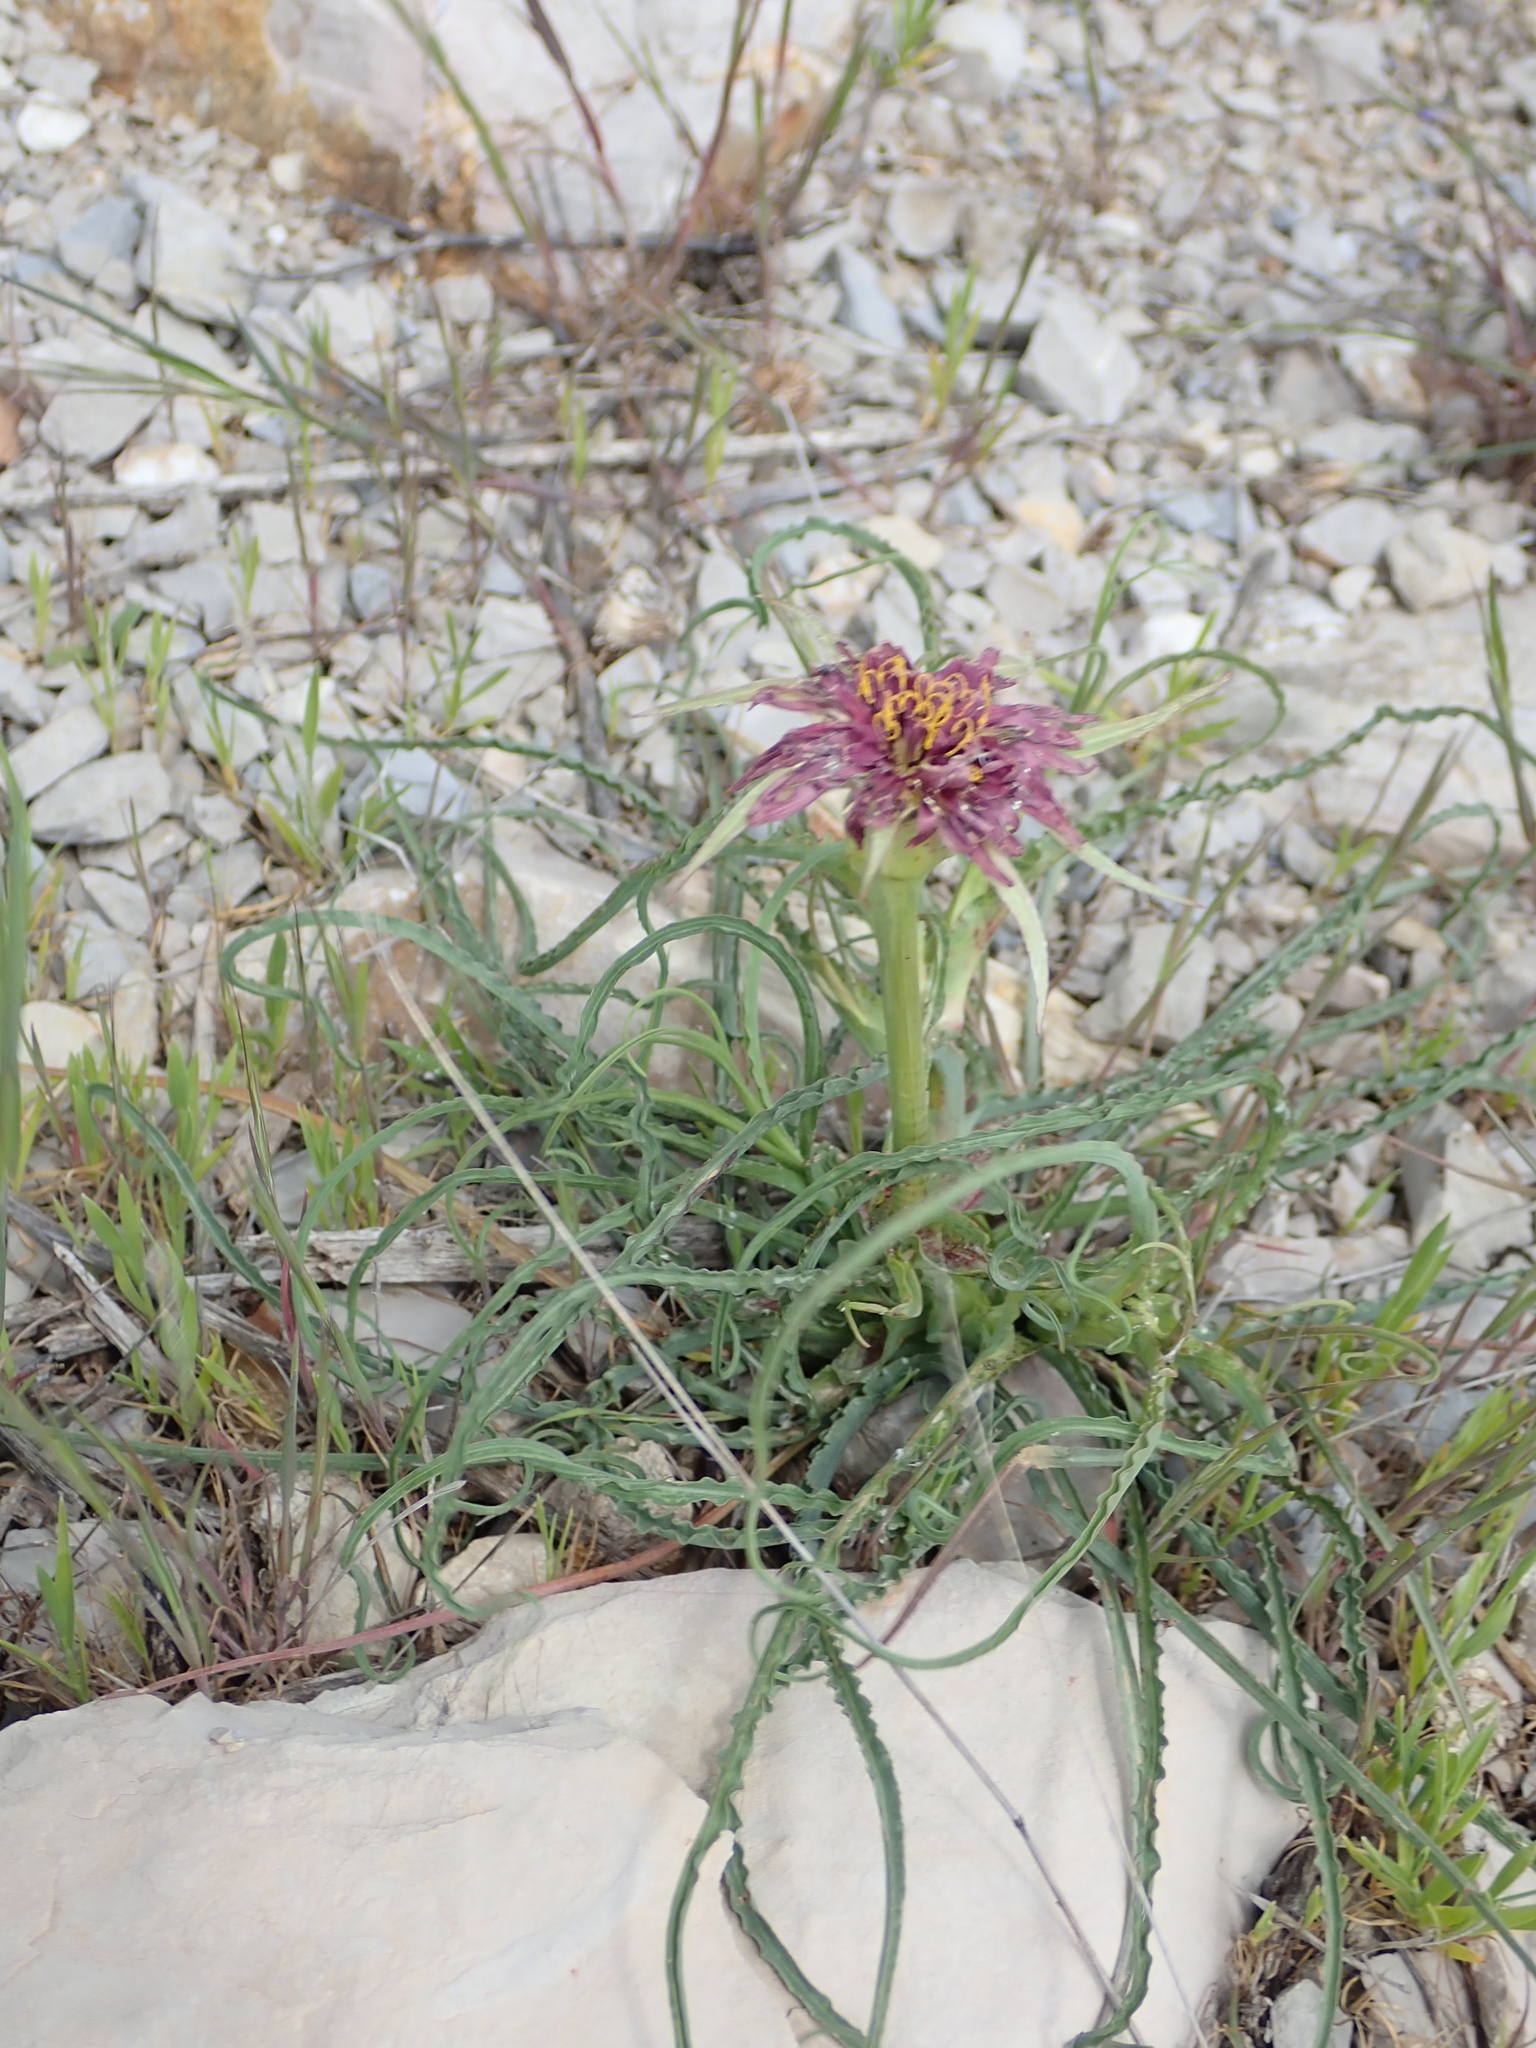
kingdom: Plantae
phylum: Tracheophyta
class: Magnoliopsida
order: Asterales
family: Asteraceae
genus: Tragopogon
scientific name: Tragopogon porrifolius
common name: Salsify
